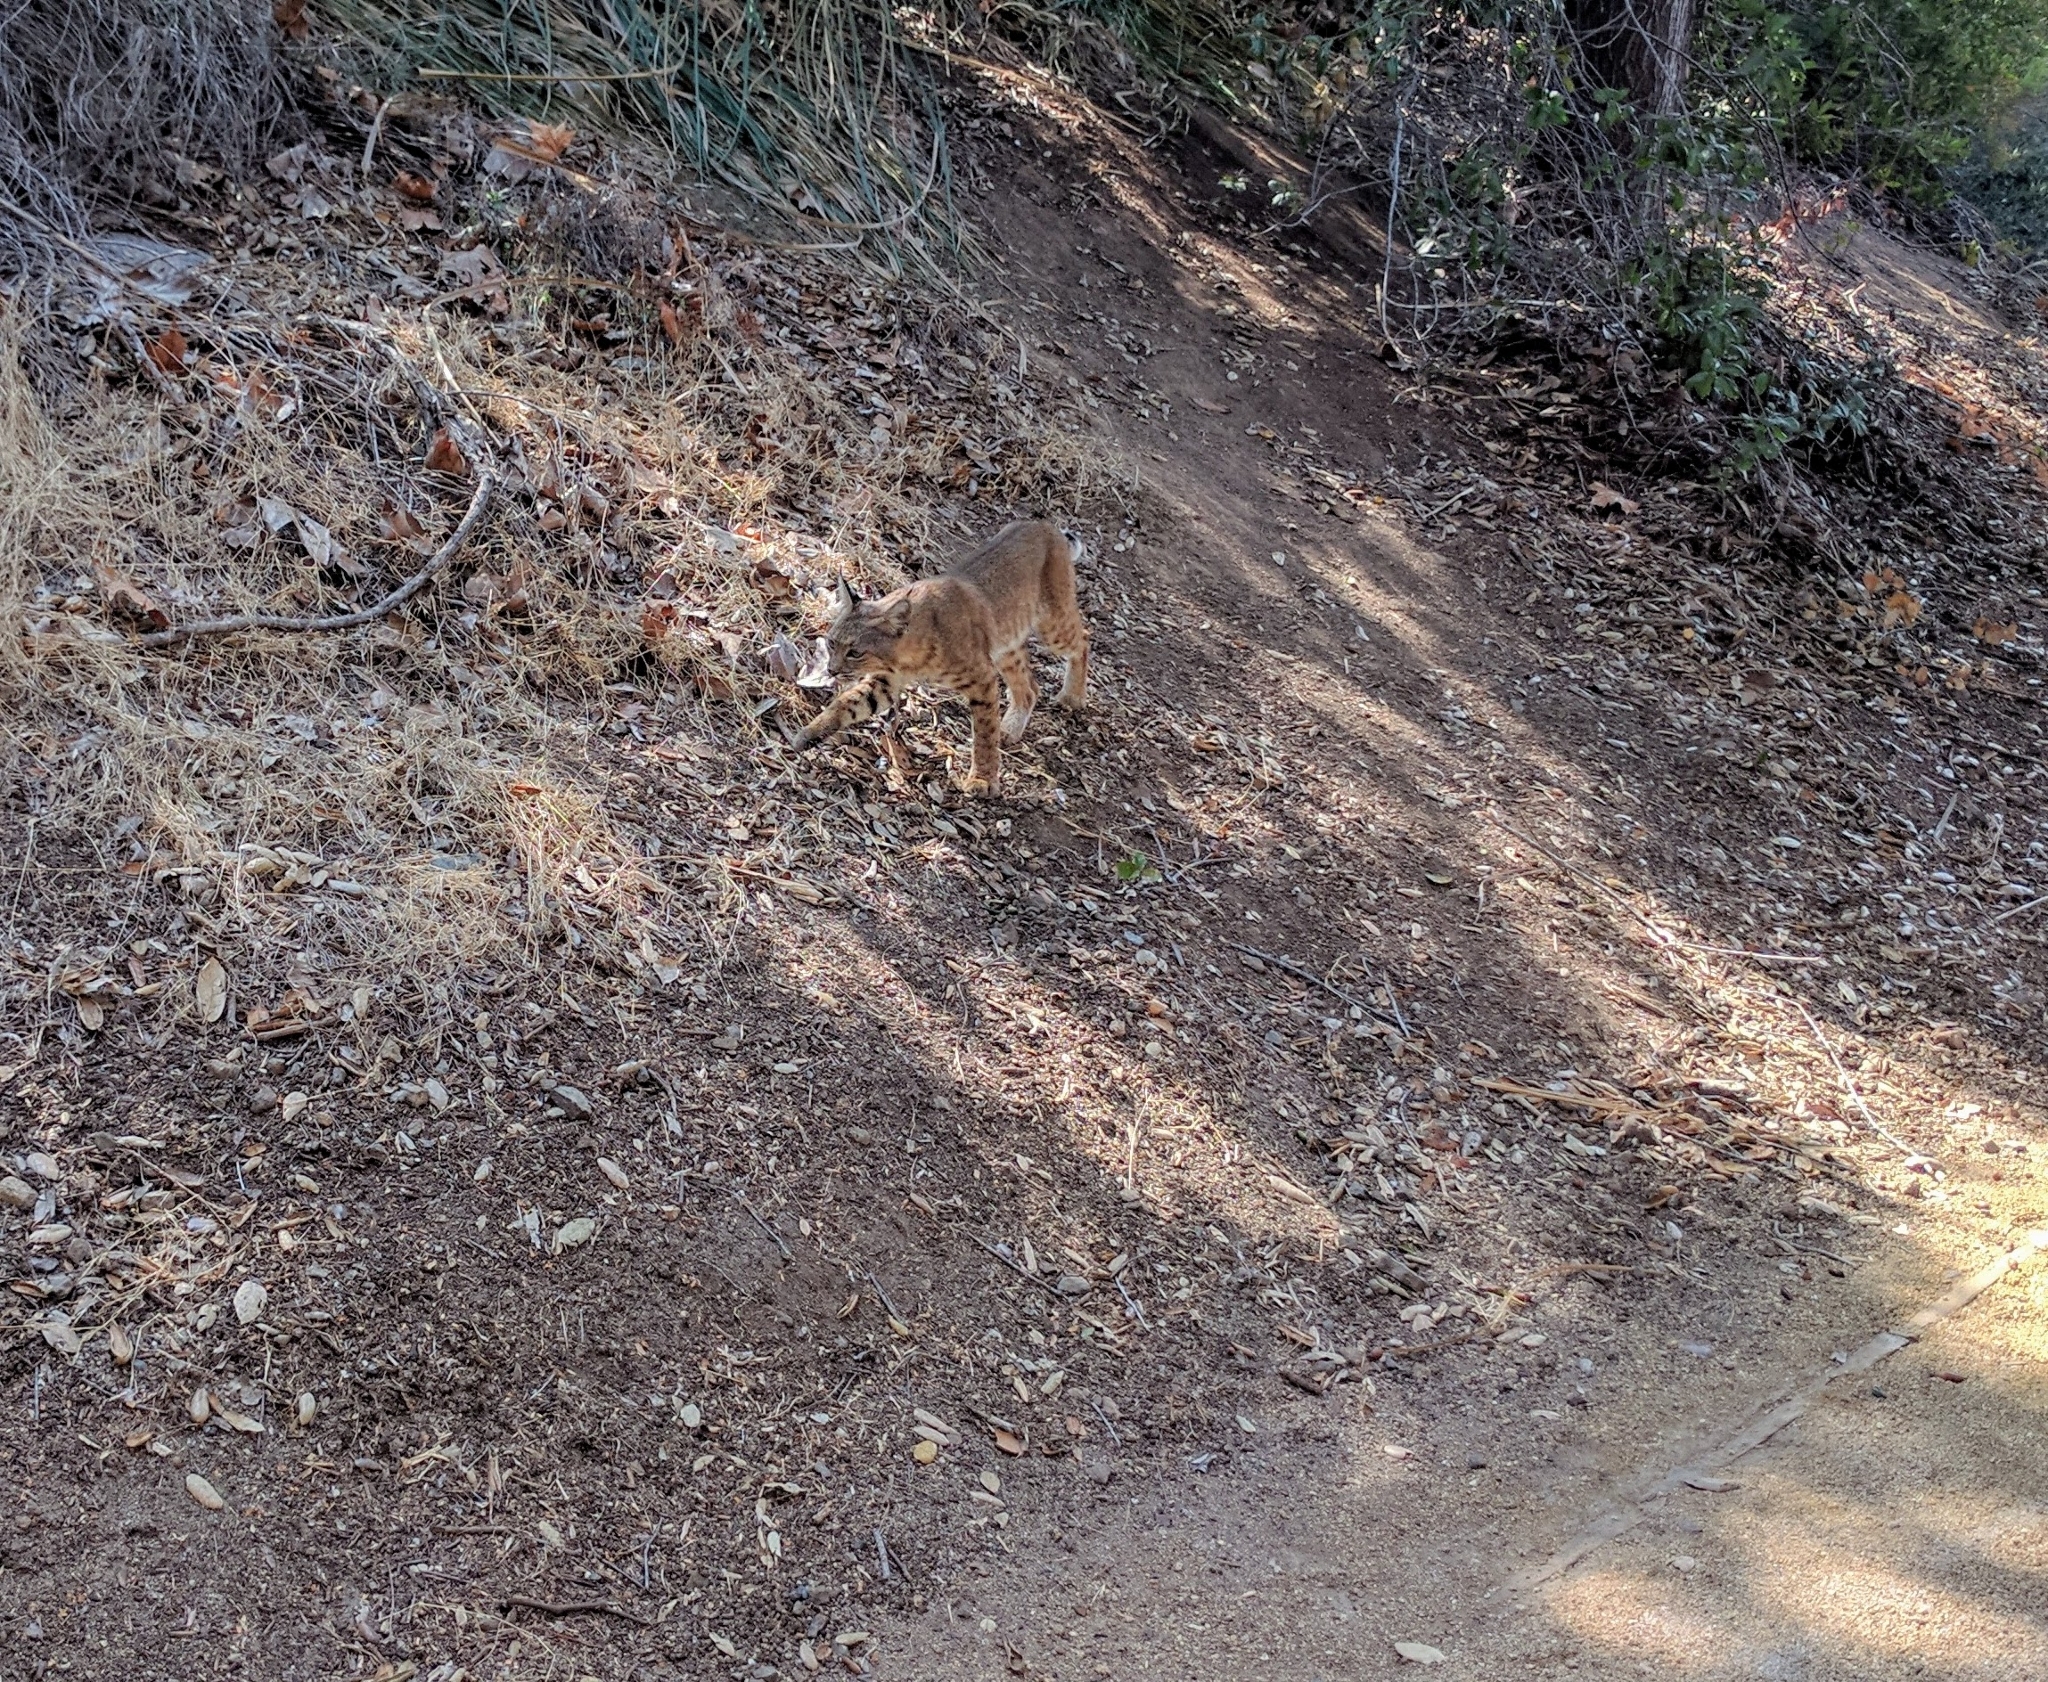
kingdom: Animalia
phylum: Chordata
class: Mammalia
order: Carnivora
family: Felidae
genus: Lynx
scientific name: Lynx rufus
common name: Bobcat
